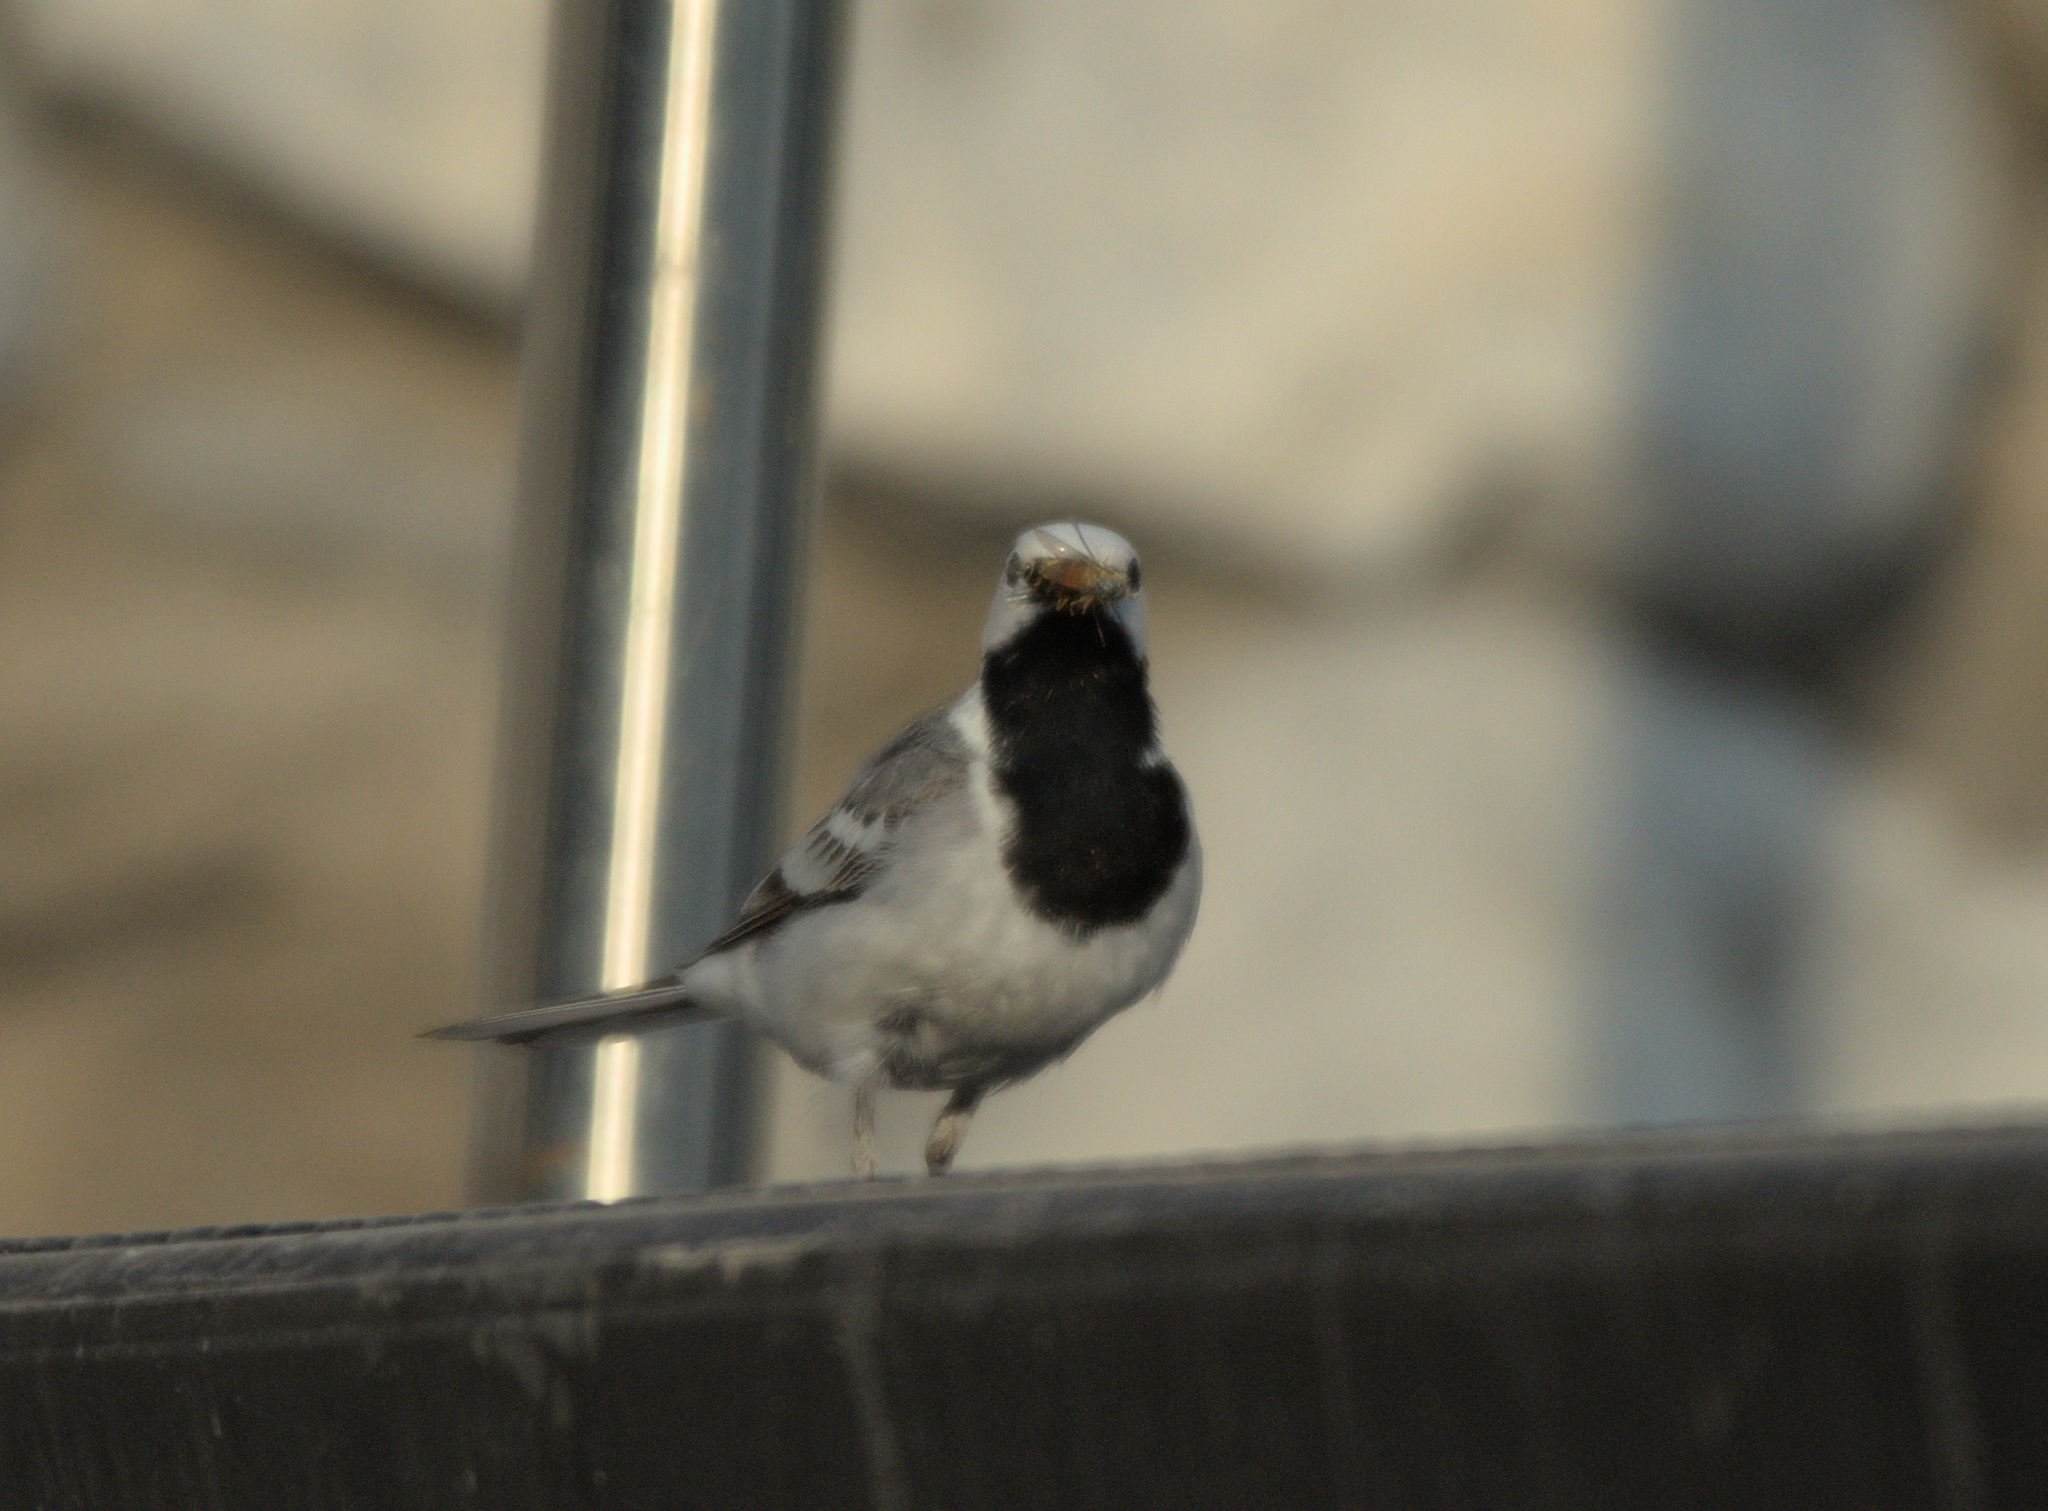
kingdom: Animalia
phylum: Chordata
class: Aves
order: Passeriformes
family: Motacillidae
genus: Motacilla
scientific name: Motacilla alba
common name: White wagtail
